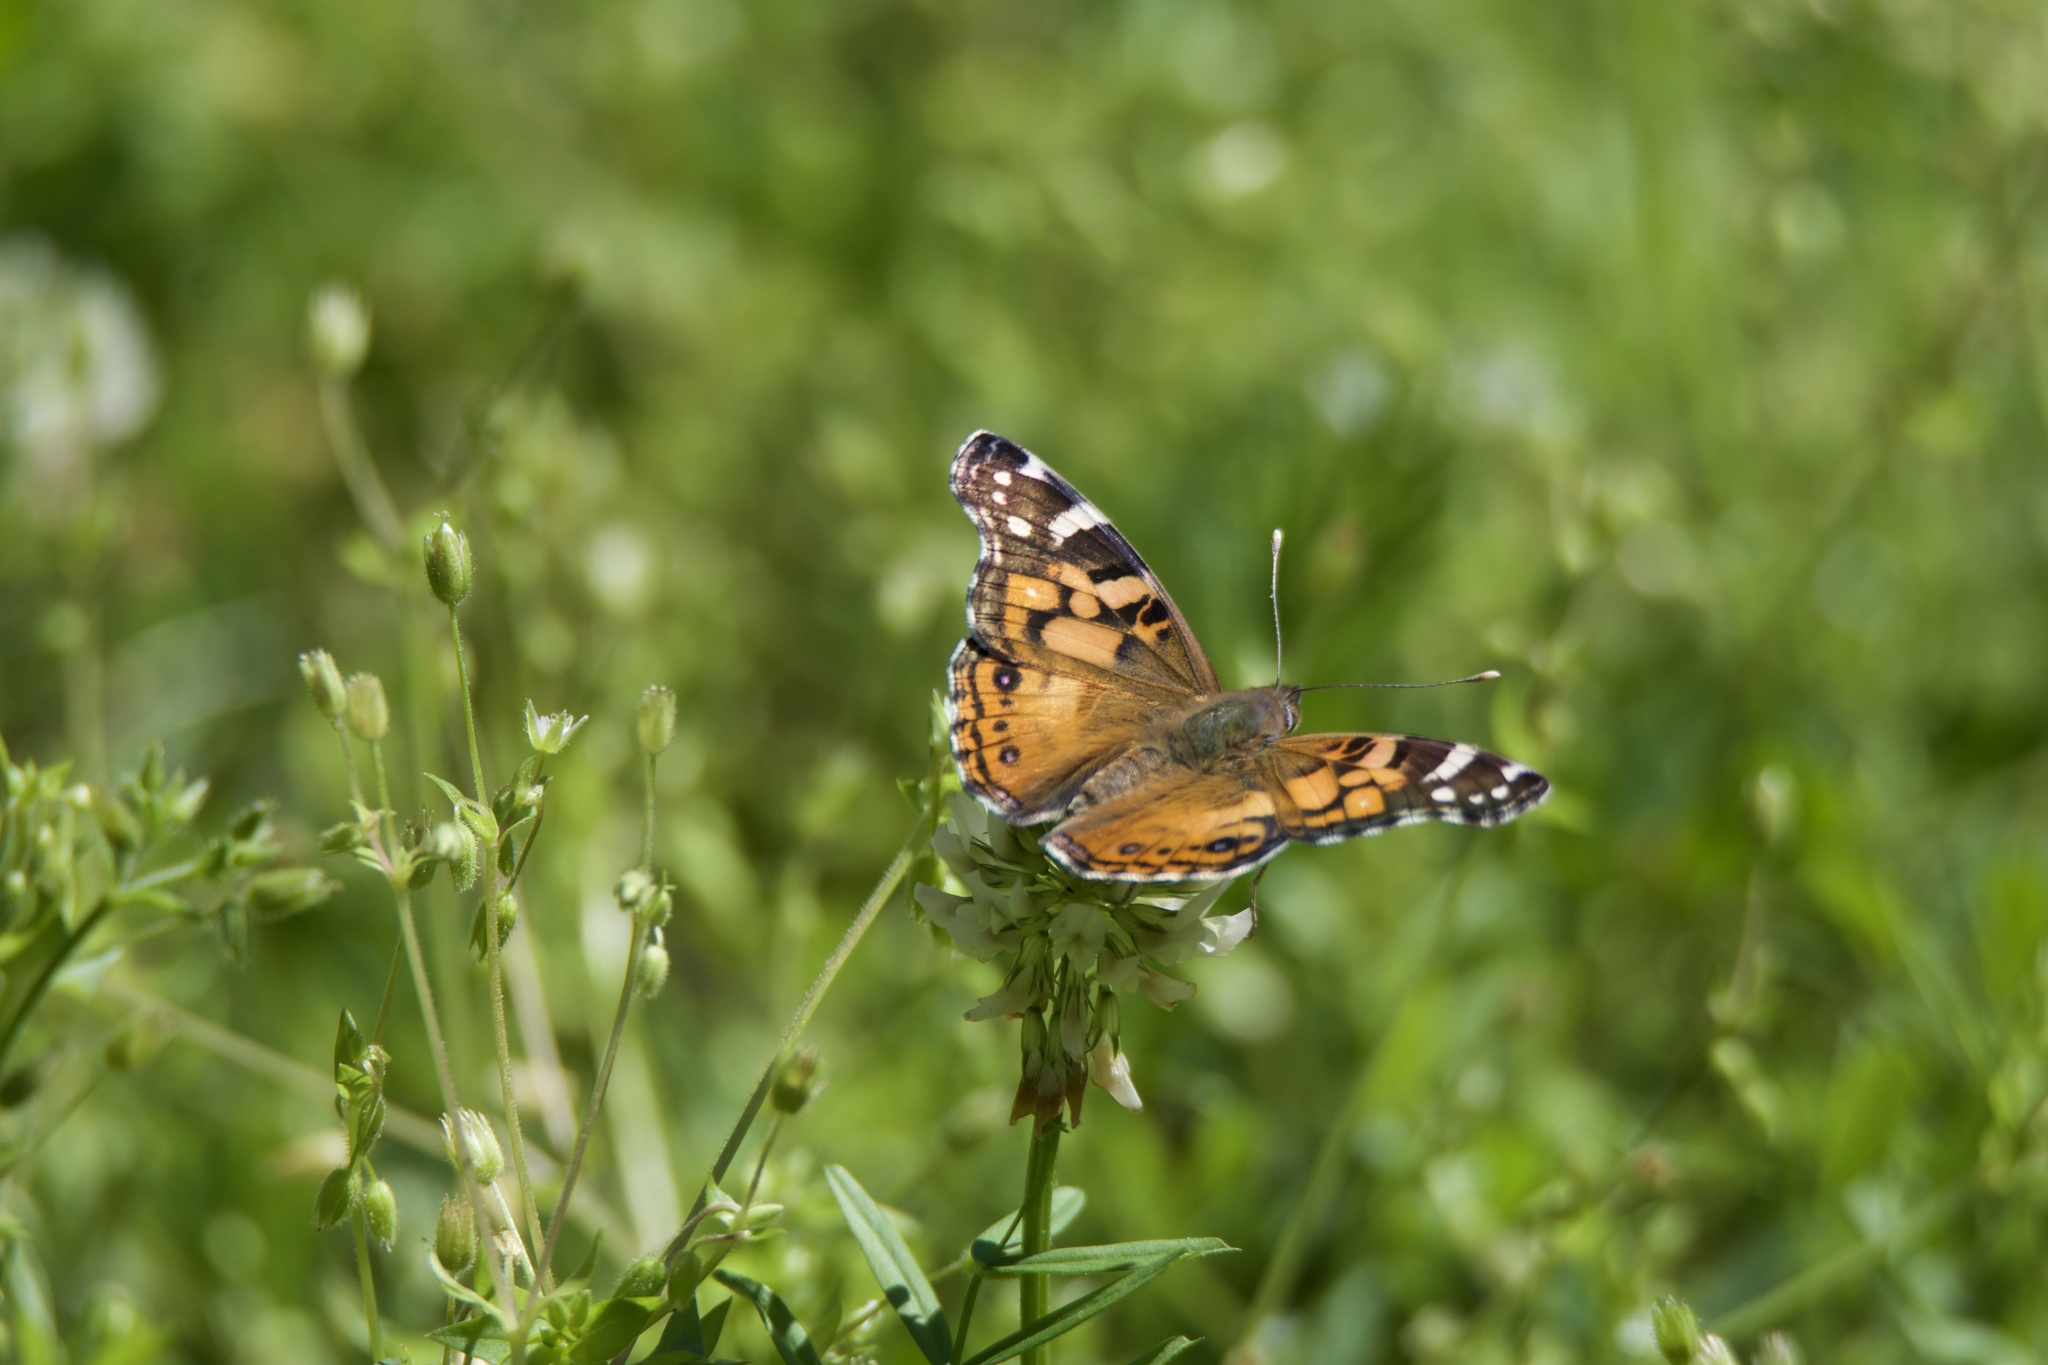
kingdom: Animalia
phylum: Arthropoda
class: Insecta
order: Lepidoptera
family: Nymphalidae
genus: Vanessa
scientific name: Vanessa virginiensis
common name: American lady
